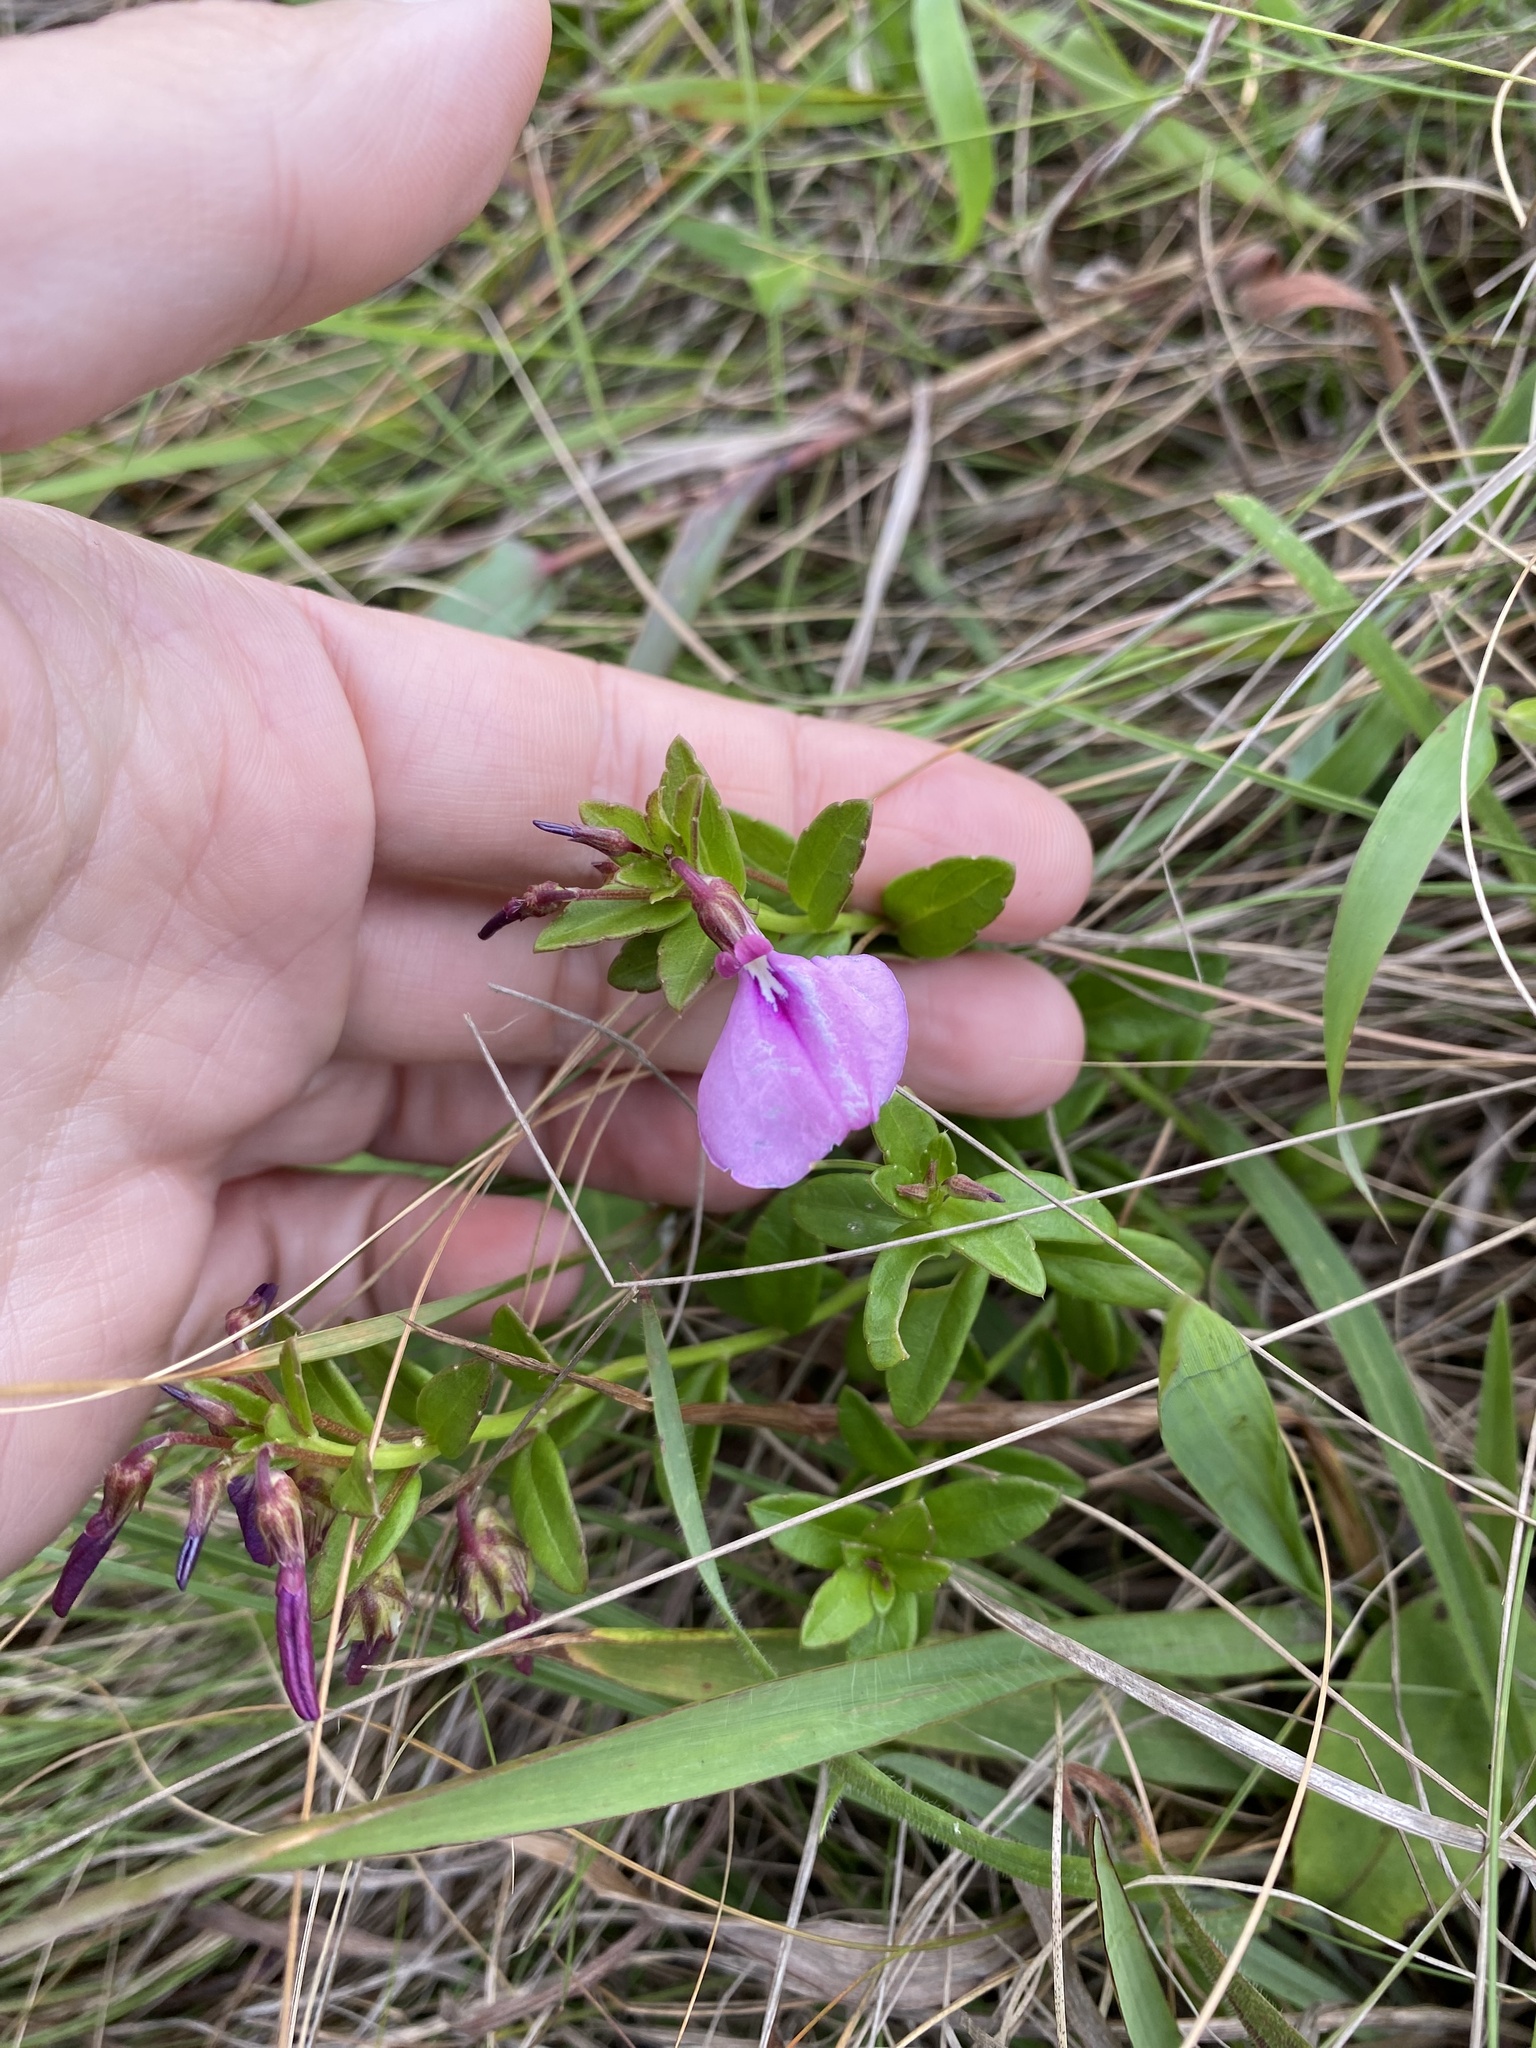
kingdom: Plantae
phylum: Tracheophyta
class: Magnoliopsida
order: Malpighiales
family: Violaceae
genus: Pigea
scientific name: Pigea enneasperma
